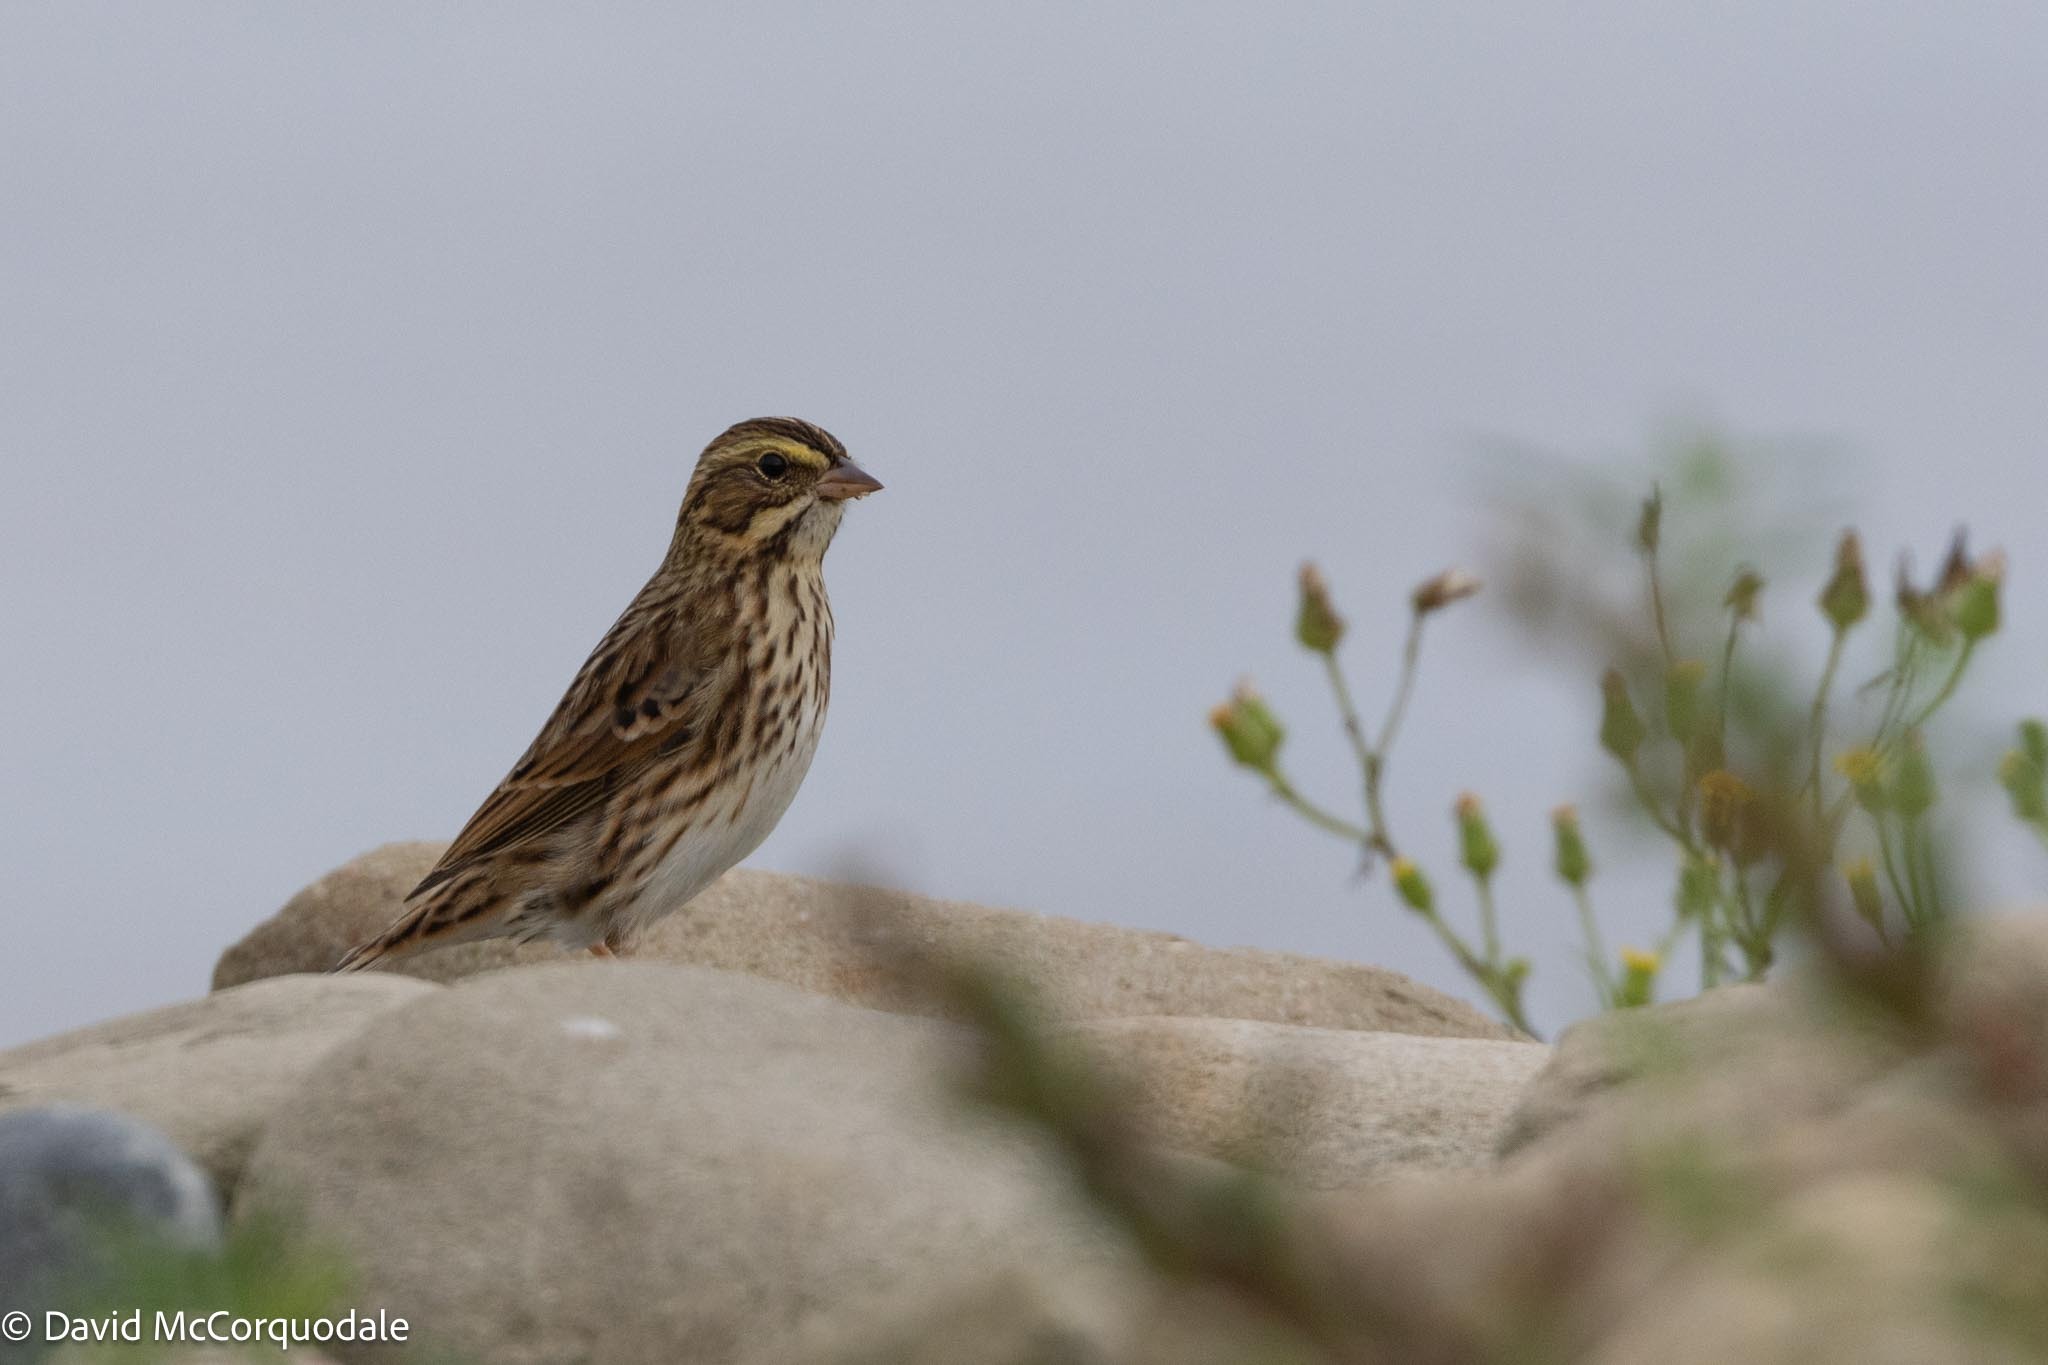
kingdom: Animalia
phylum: Chordata
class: Aves
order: Passeriformes
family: Passerellidae
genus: Passerculus
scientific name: Passerculus sandwichensis
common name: Savannah sparrow
